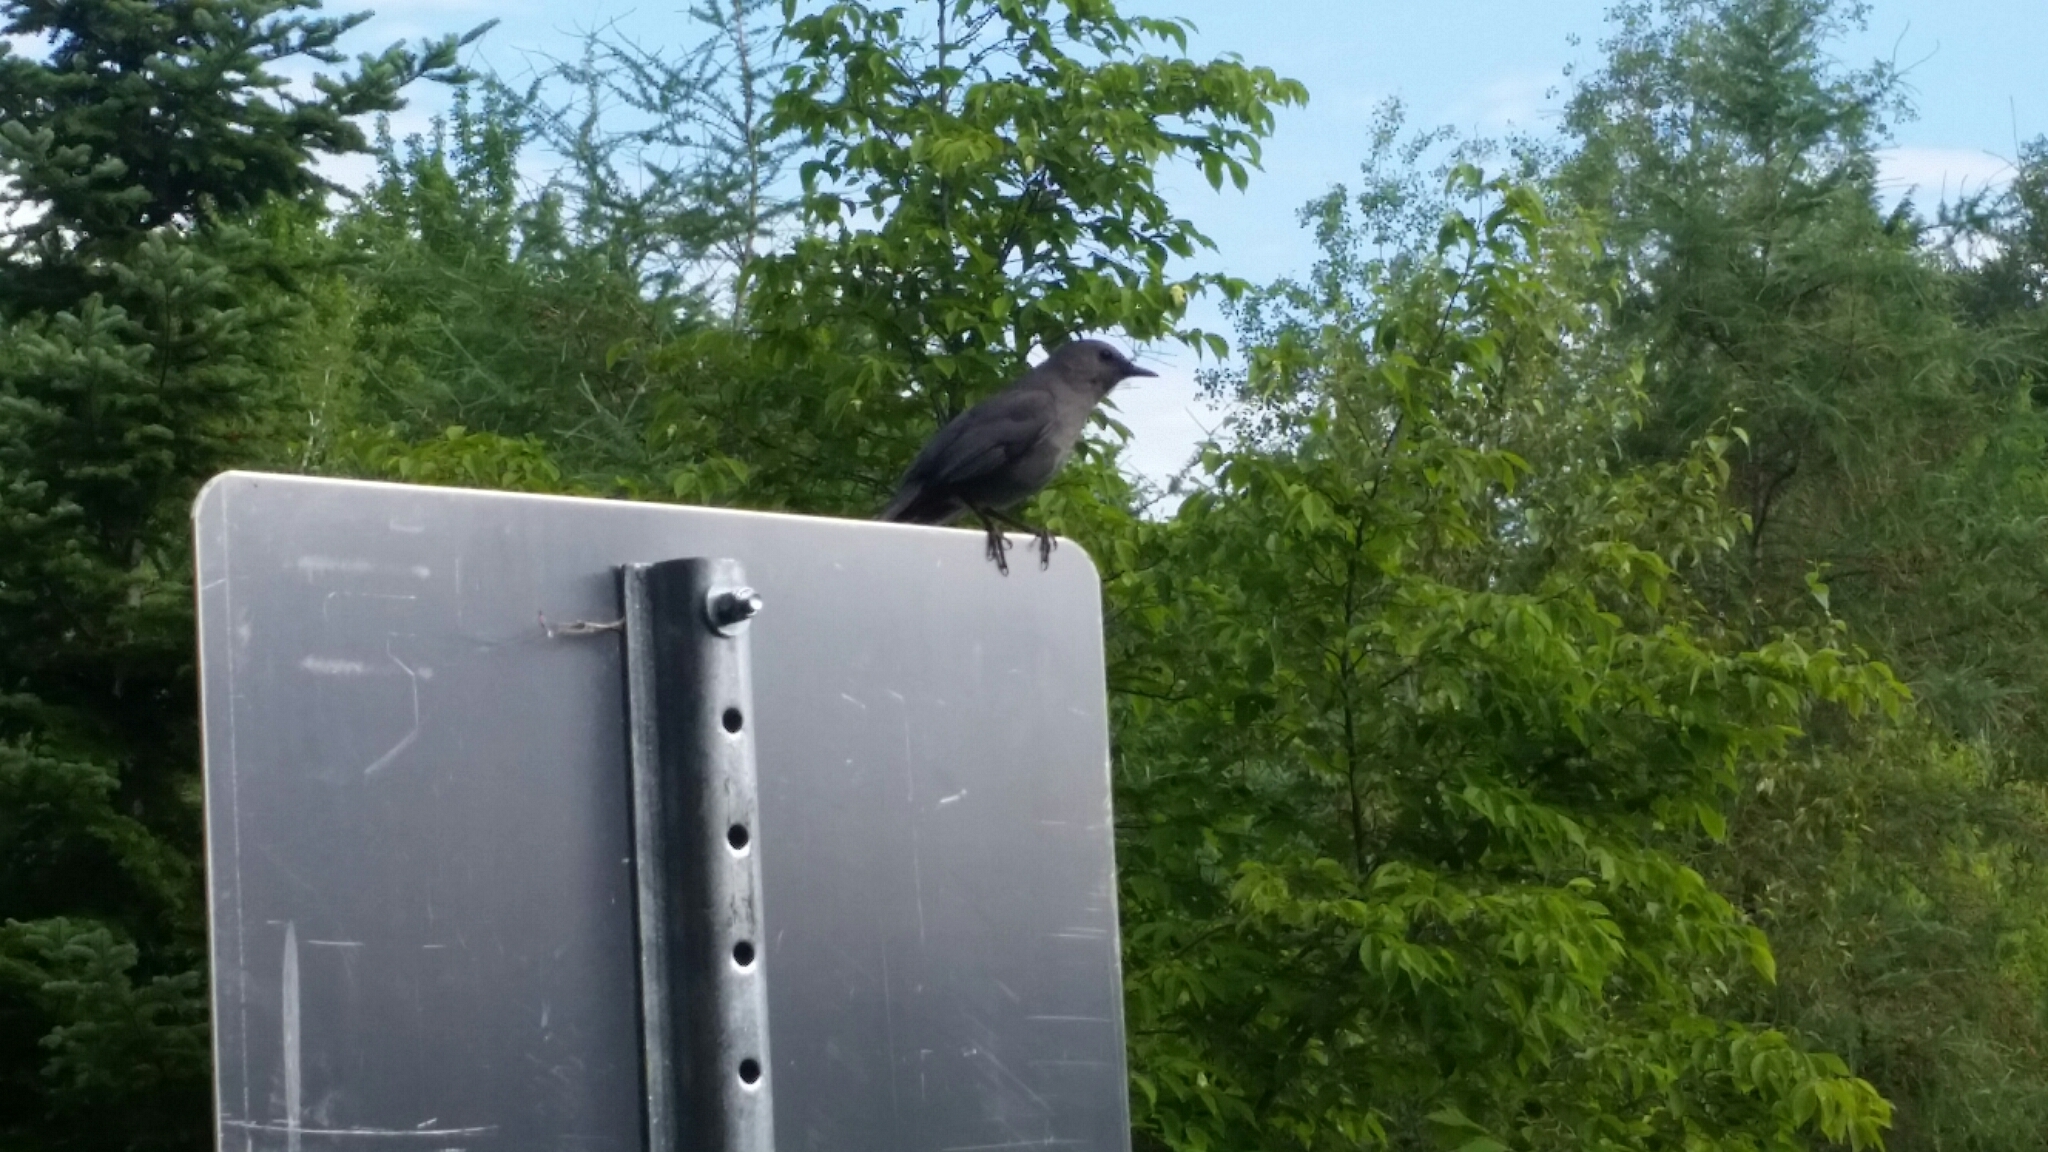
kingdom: Animalia
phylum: Chordata
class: Aves
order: Passeriformes
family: Mimidae
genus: Dumetella
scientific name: Dumetella carolinensis
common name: Gray catbird
